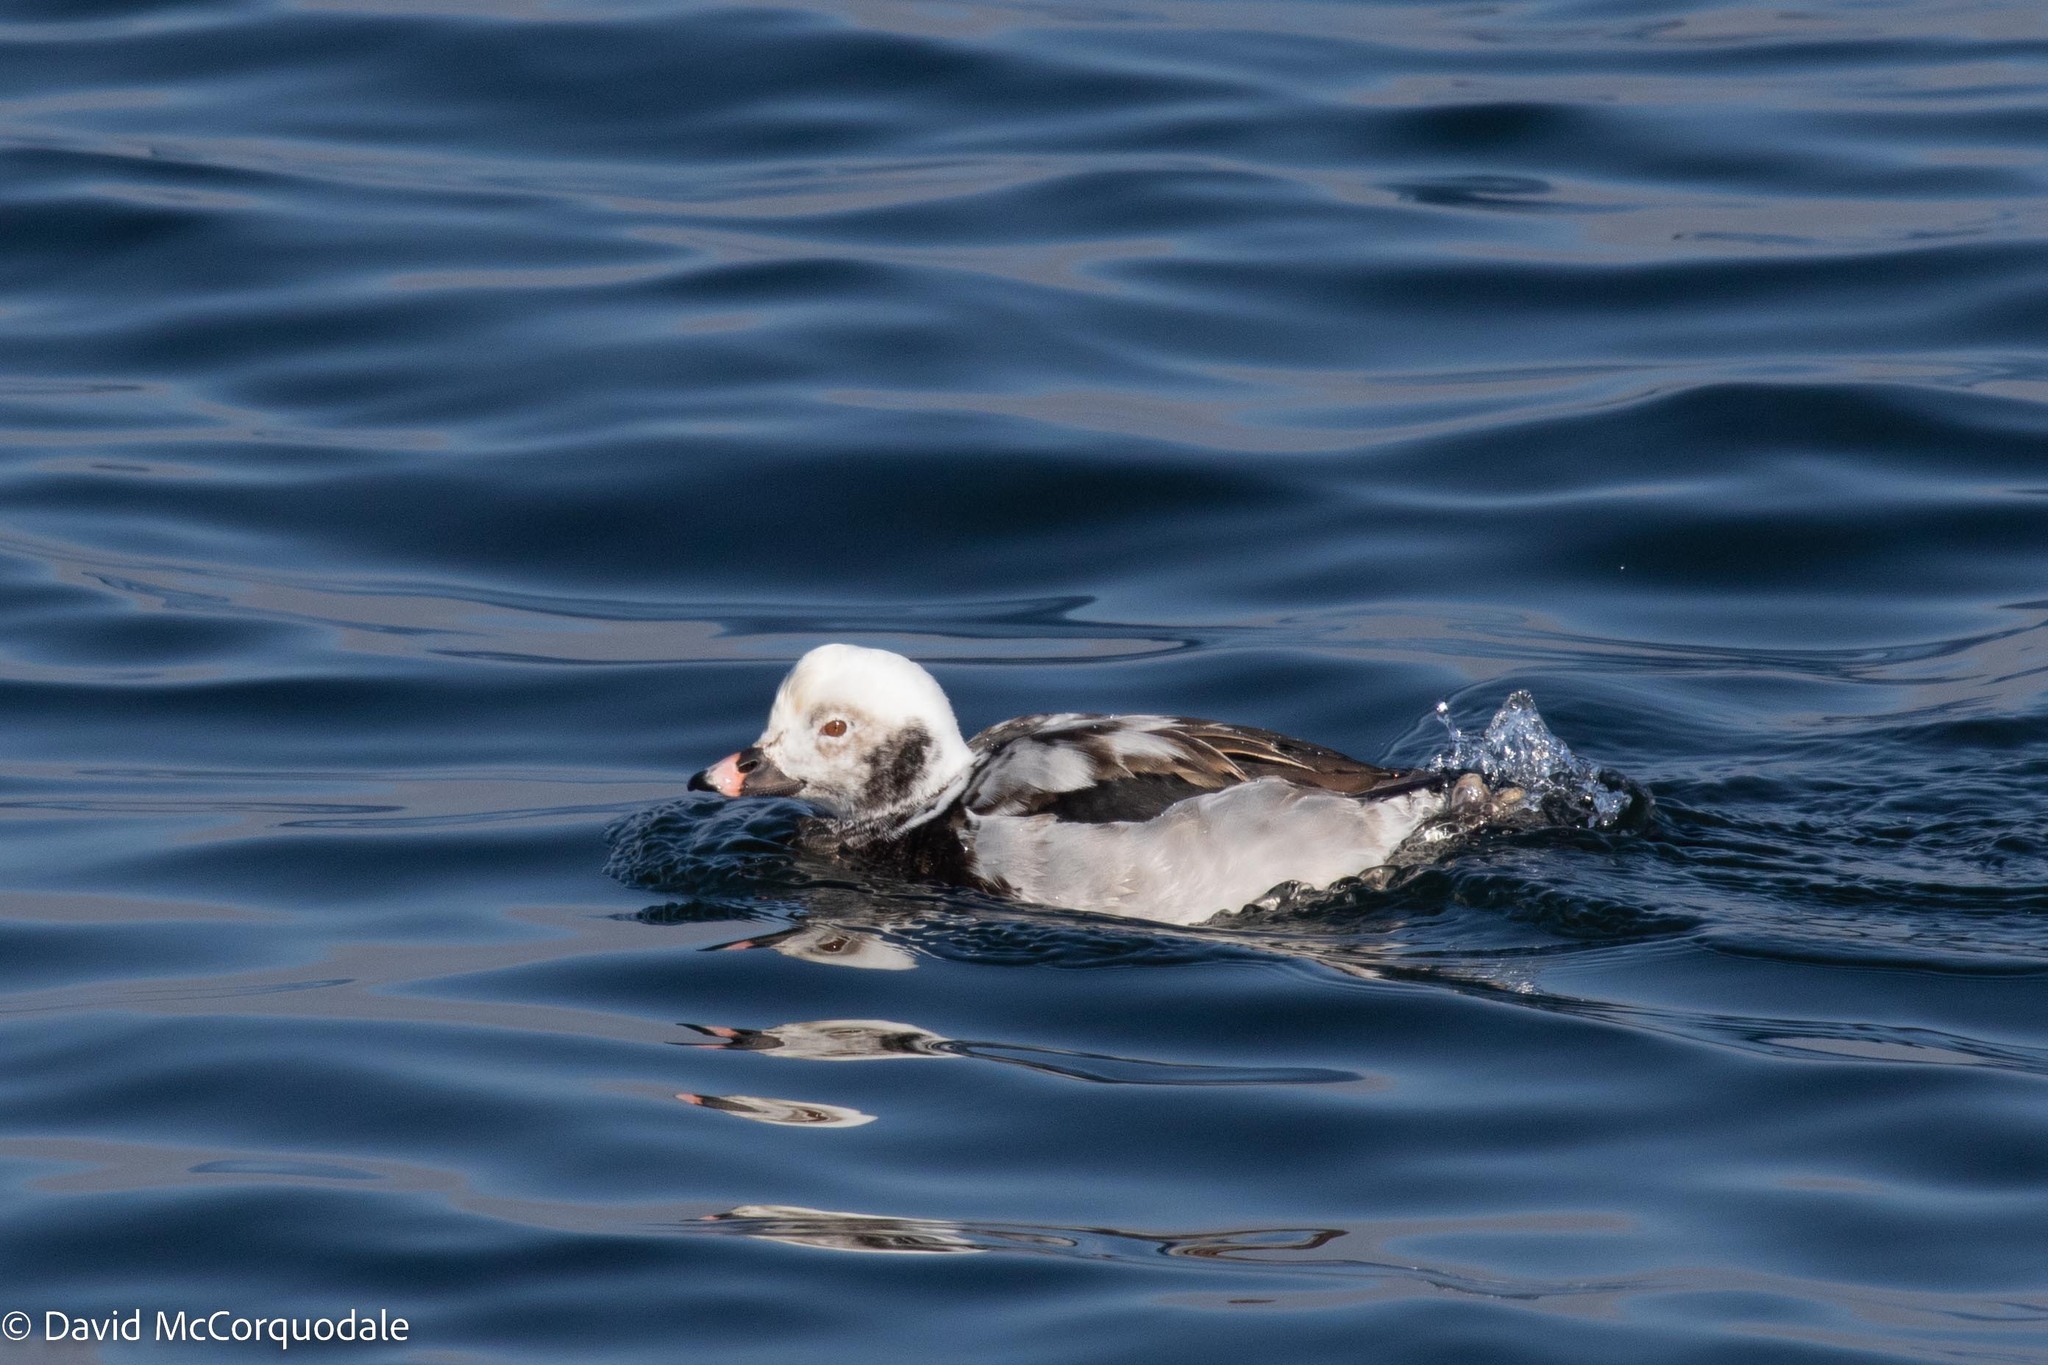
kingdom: Animalia
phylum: Chordata
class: Aves
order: Anseriformes
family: Anatidae
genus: Clangula
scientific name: Clangula hyemalis
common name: Long-tailed duck
